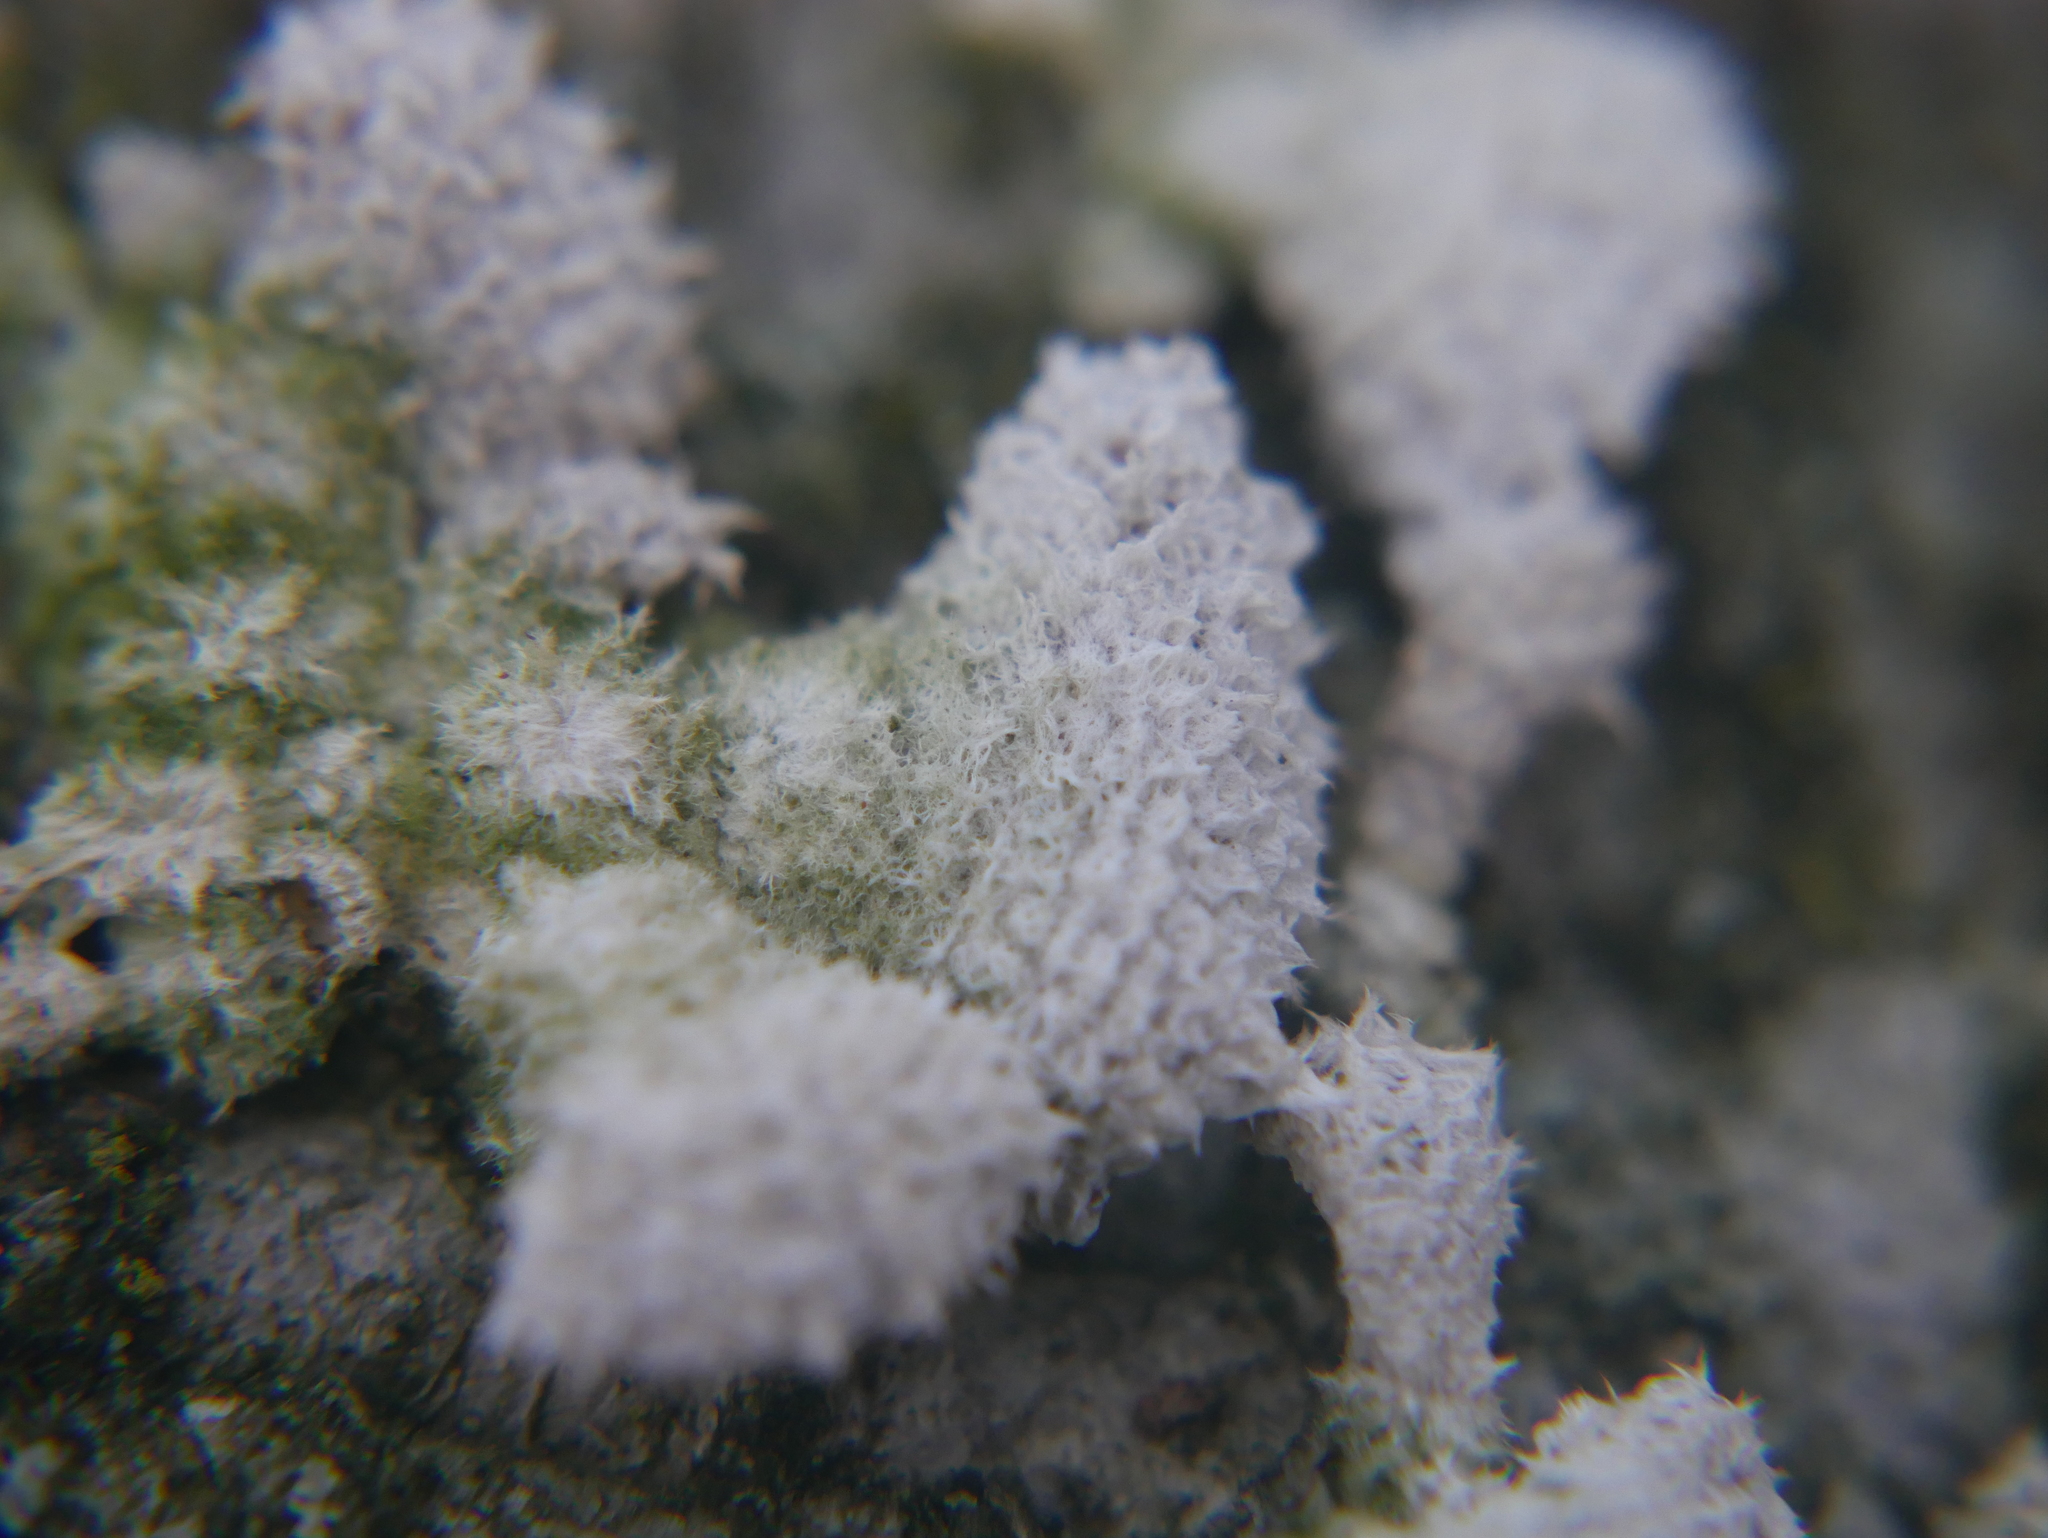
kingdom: Fungi
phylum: Basidiomycota
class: Agaricomycetes
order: Agaricales
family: Schizophyllaceae
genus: Schizophyllum
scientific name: Schizophyllum commune
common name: Common porecrust
